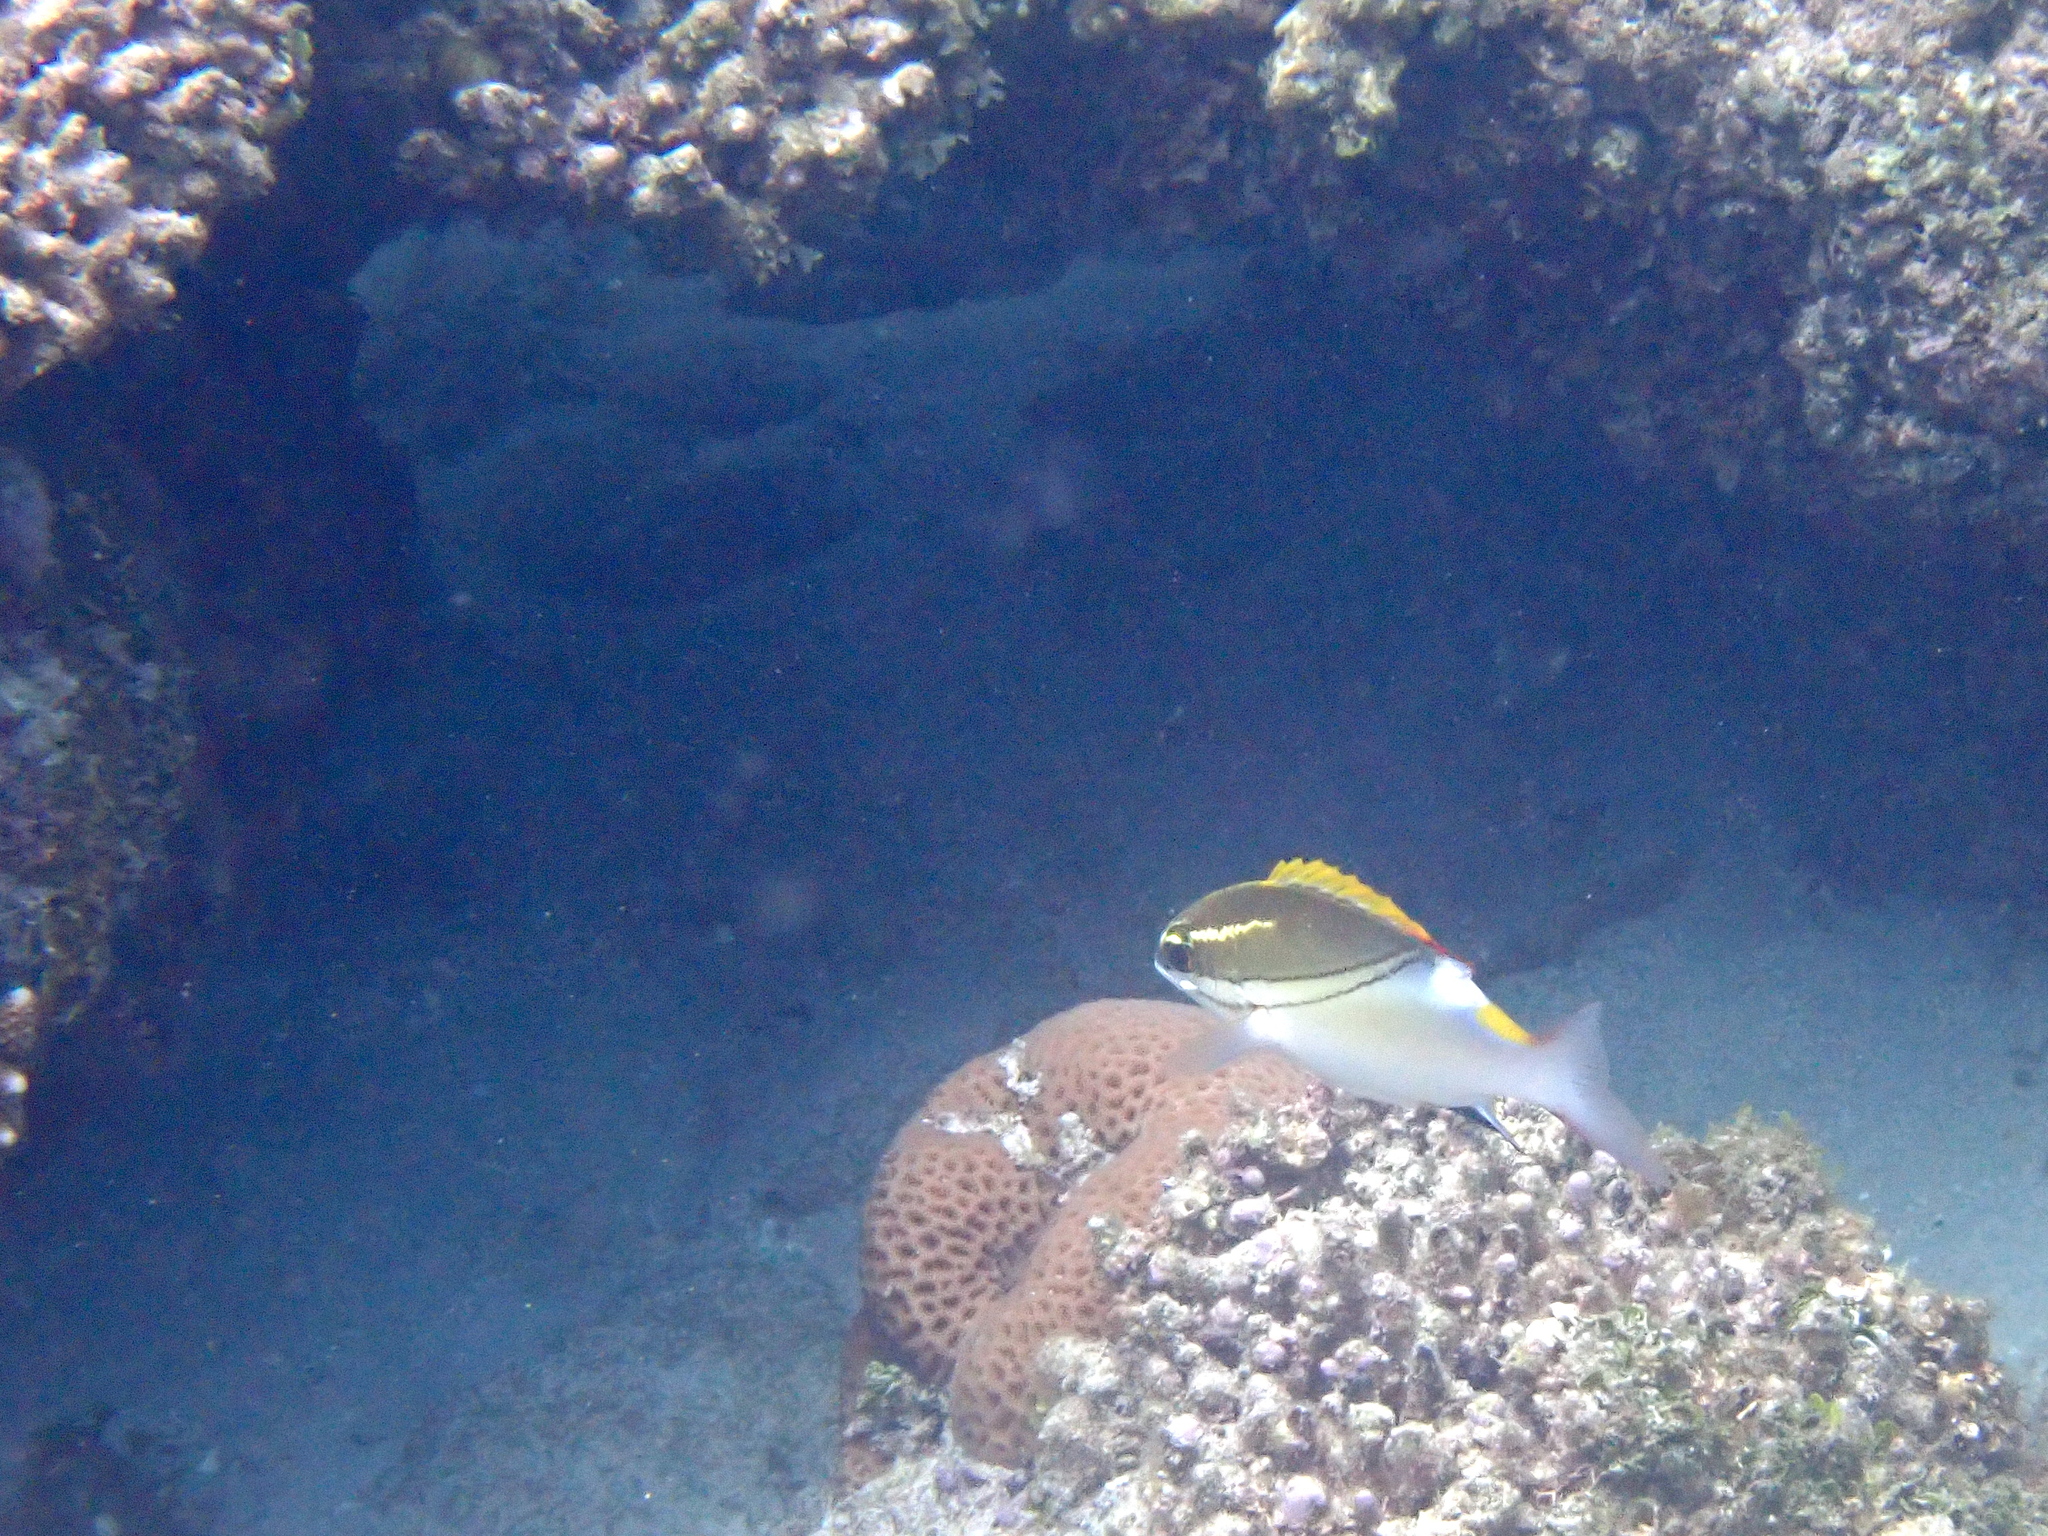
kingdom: Animalia
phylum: Chordata
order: Perciformes
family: Nemipteridae
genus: Scolopsis
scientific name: Scolopsis bilineata
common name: Two-lined monocle bream
